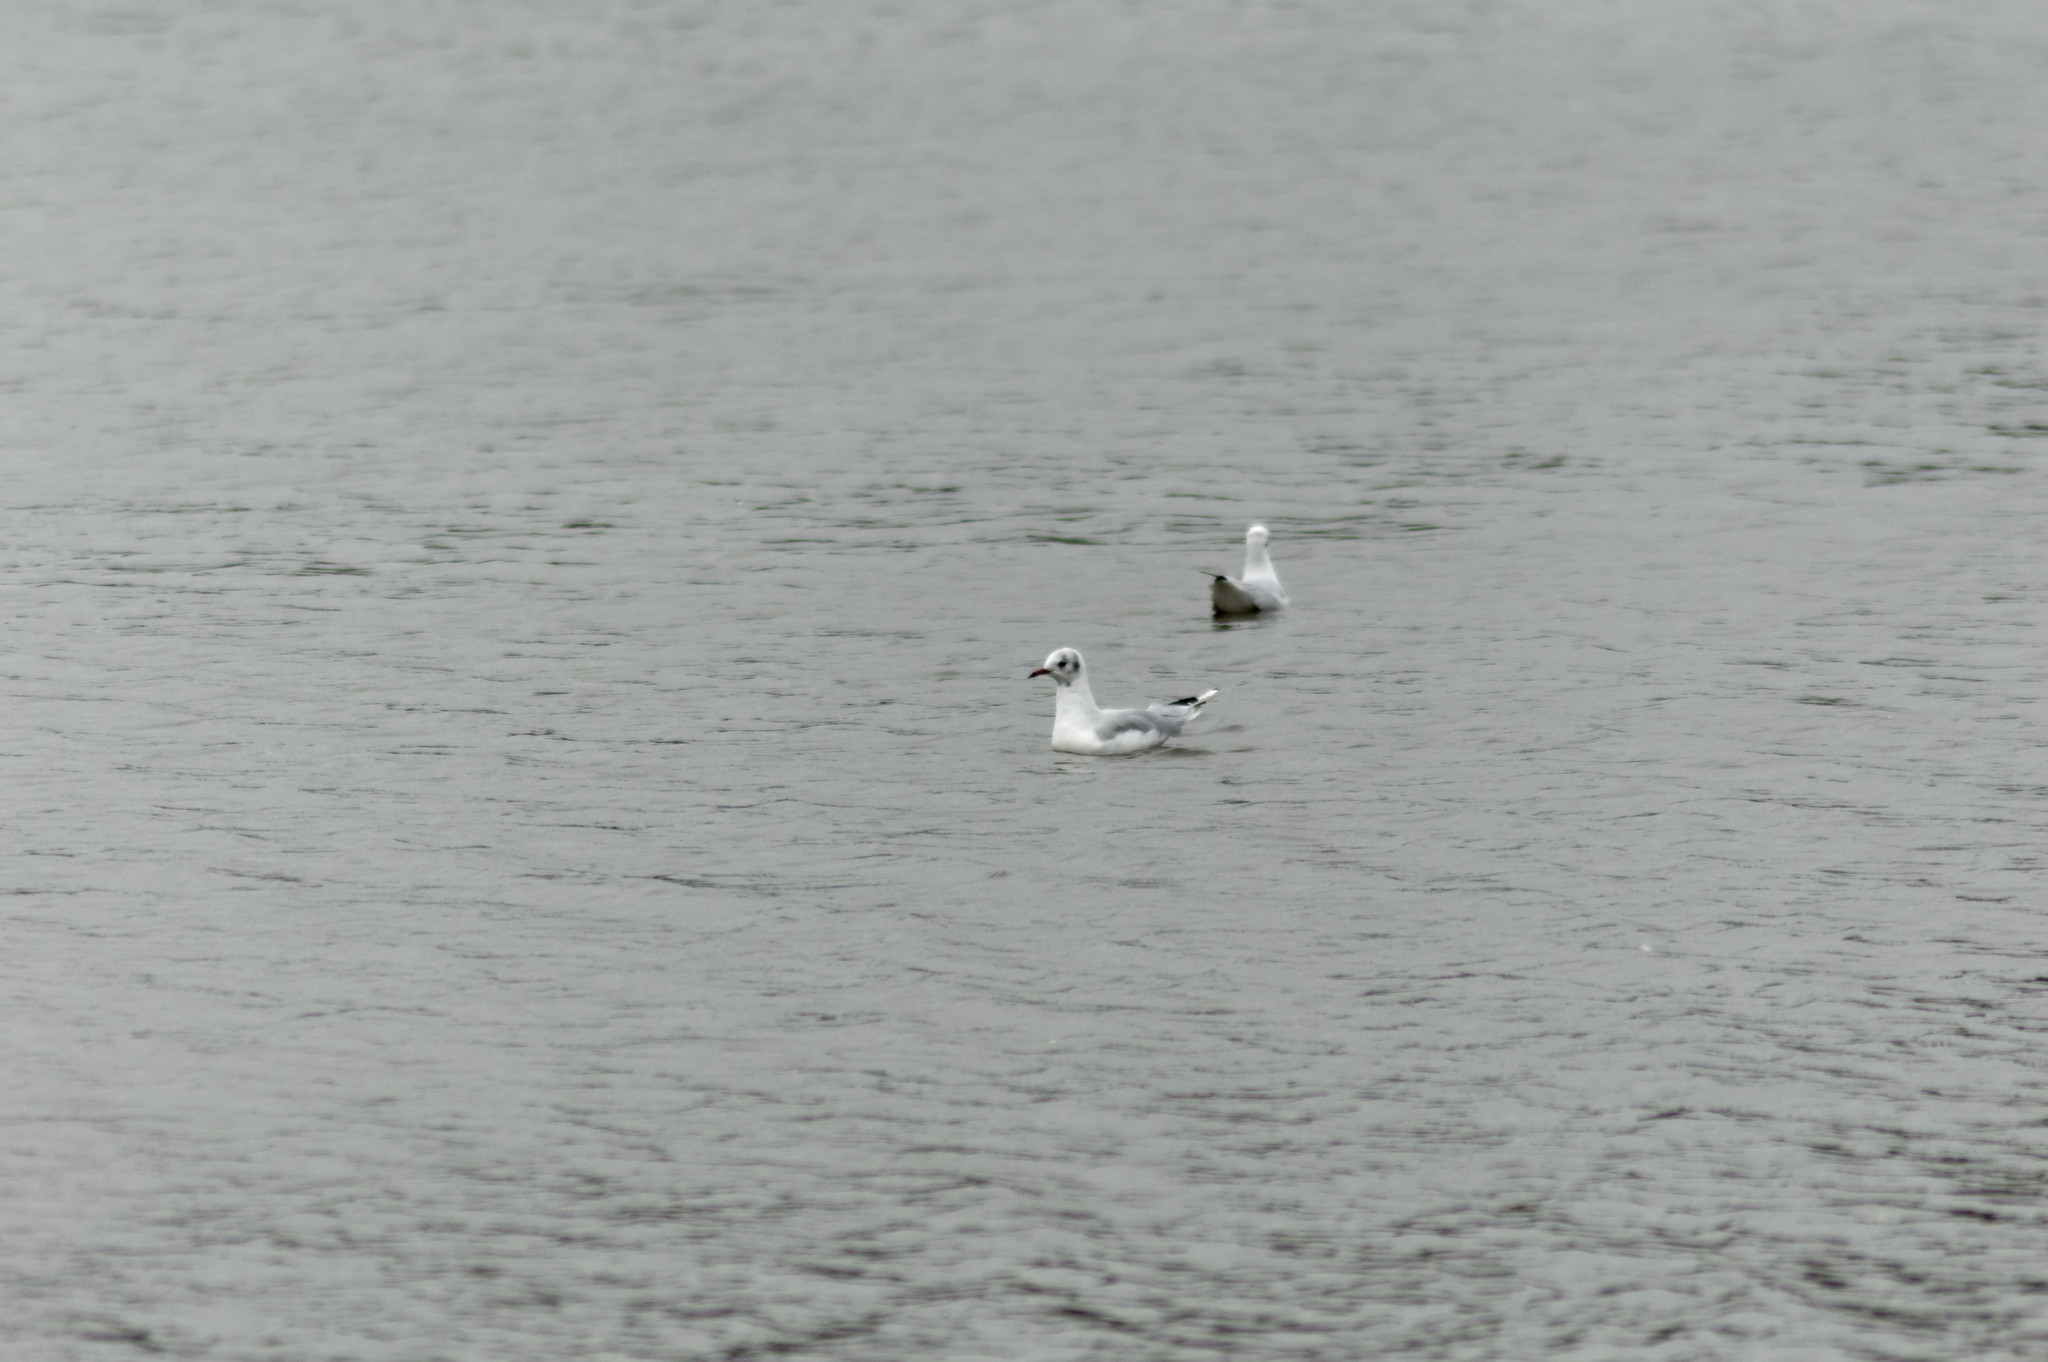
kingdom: Animalia
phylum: Chordata
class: Aves
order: Charadriiformes
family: Laridae
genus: Chroicocephalus
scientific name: Chroicocephalus ridibundus
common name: Black-headed gull
